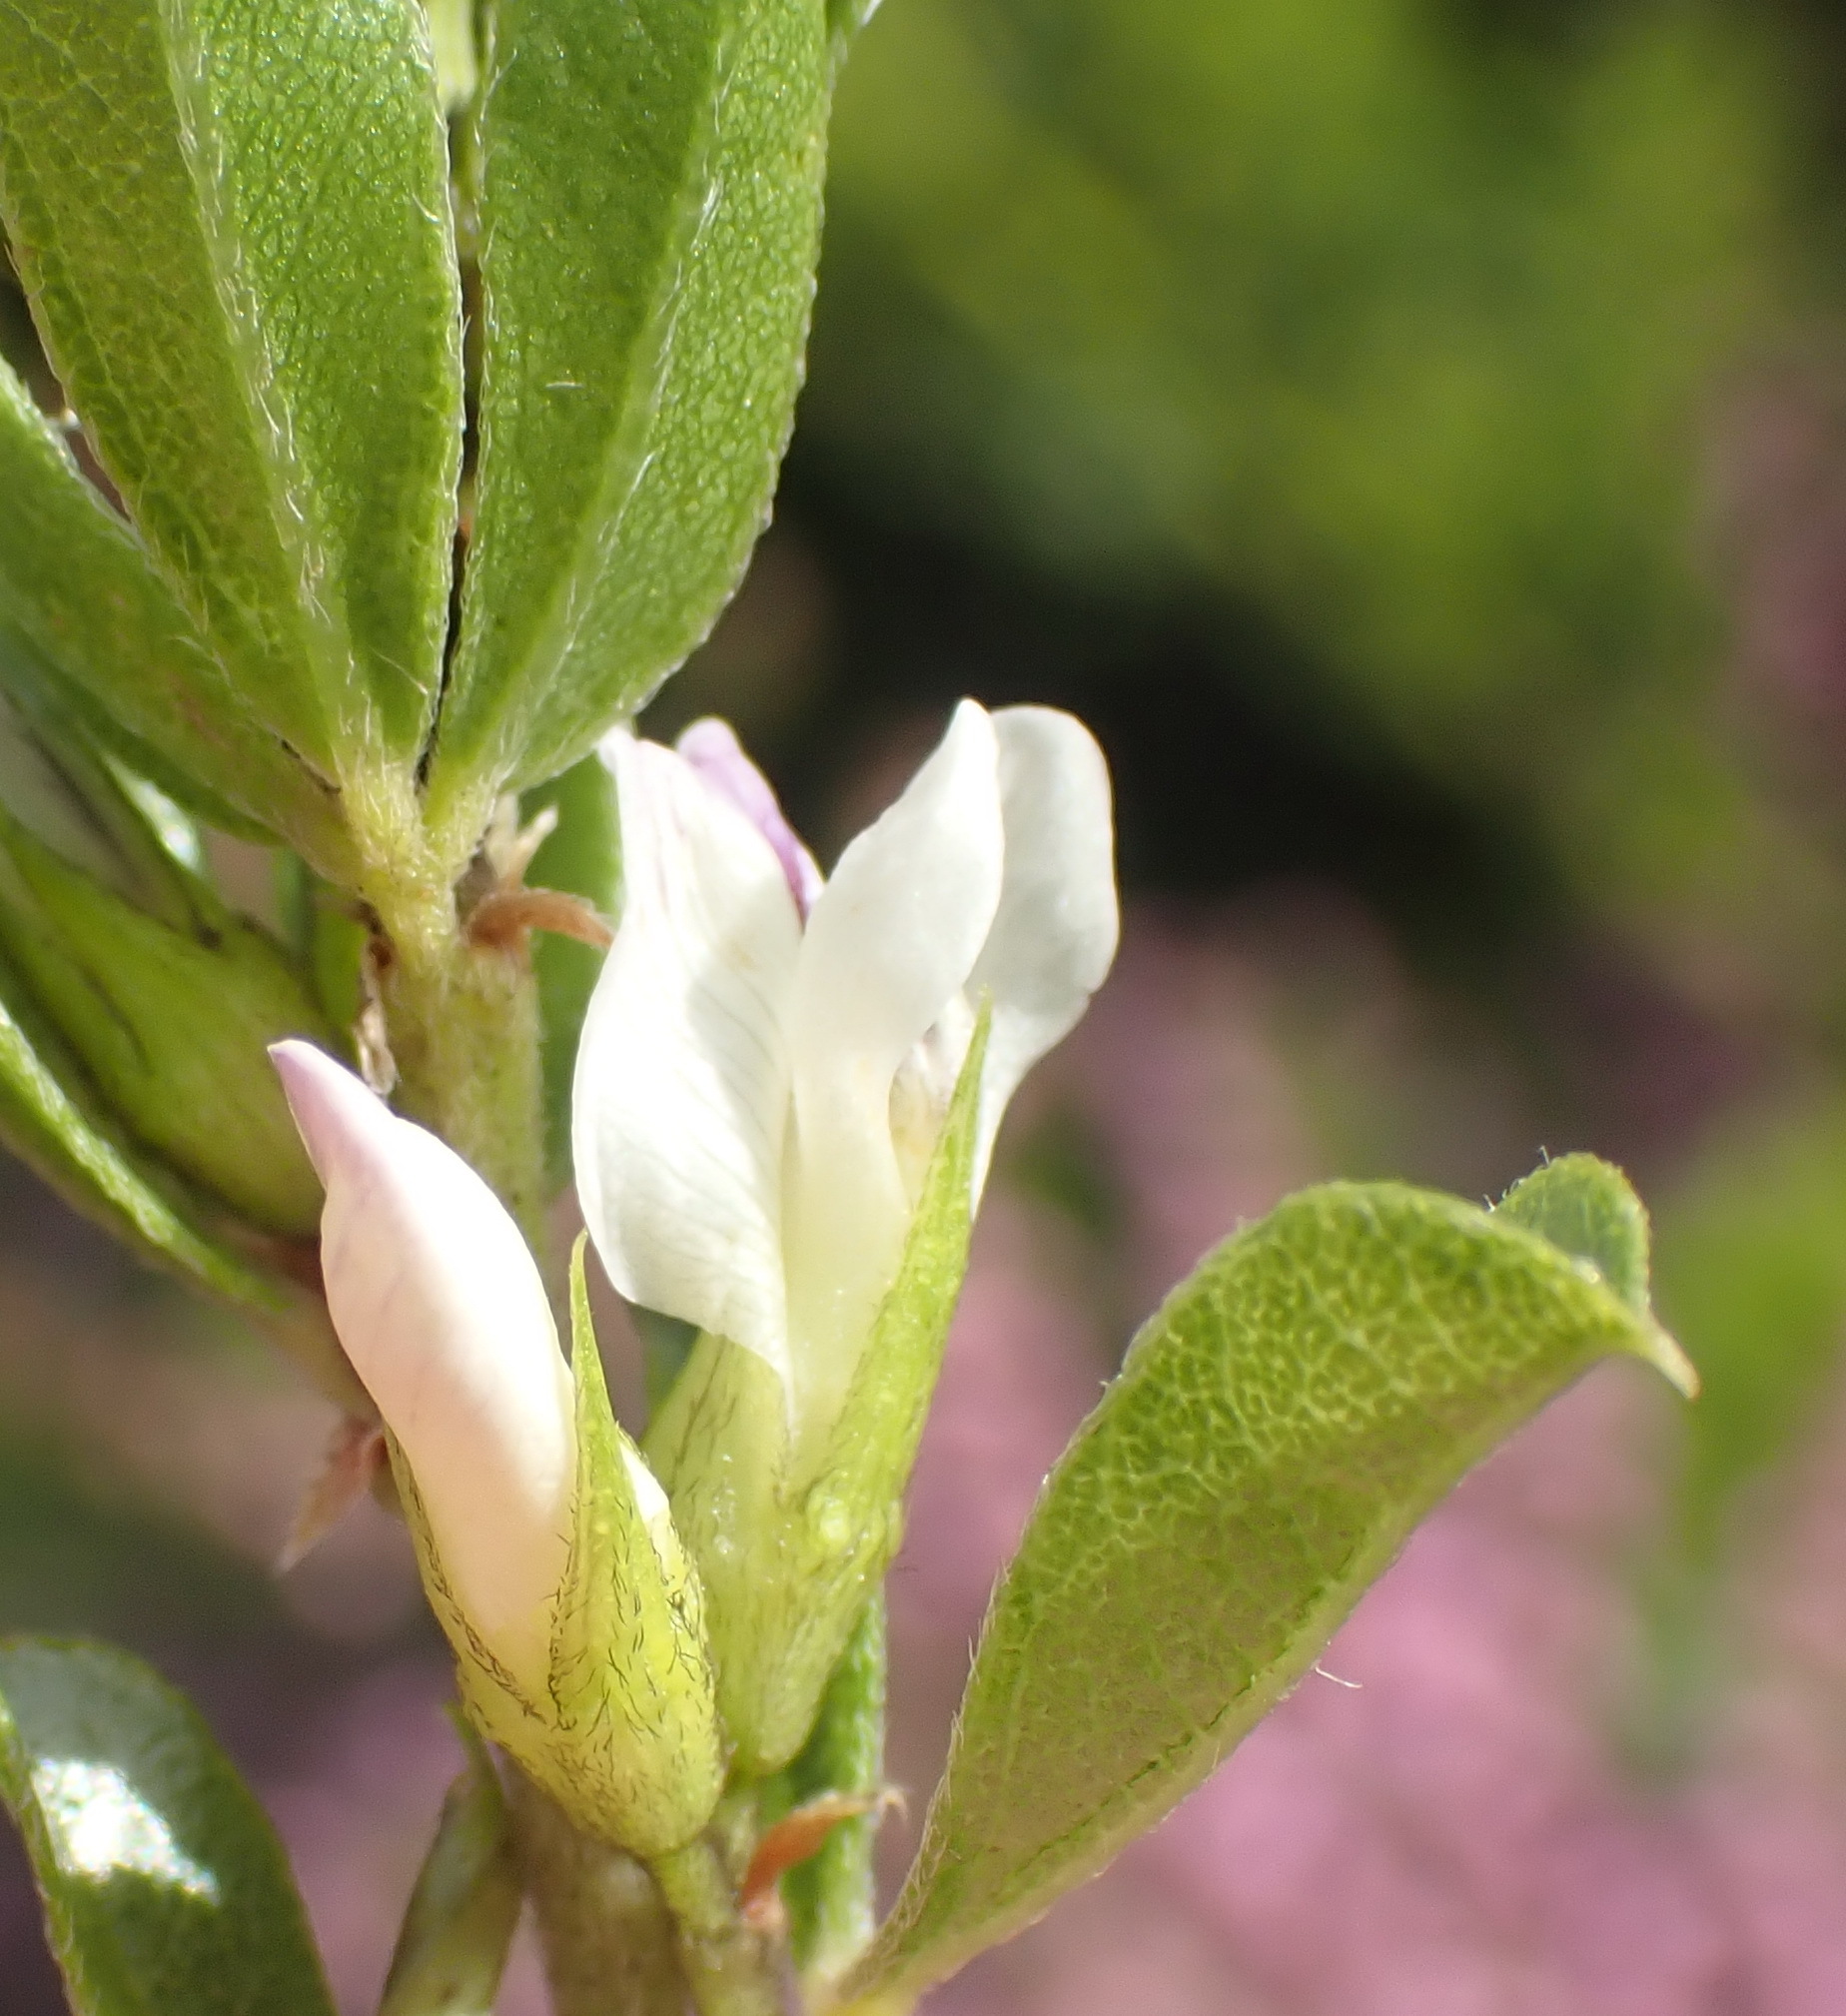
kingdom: Plantae
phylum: Tracheophyta
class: Magnoliopsida
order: Fabales
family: Fabaceae
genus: Psoralea
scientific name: Psoralea heterosepala
